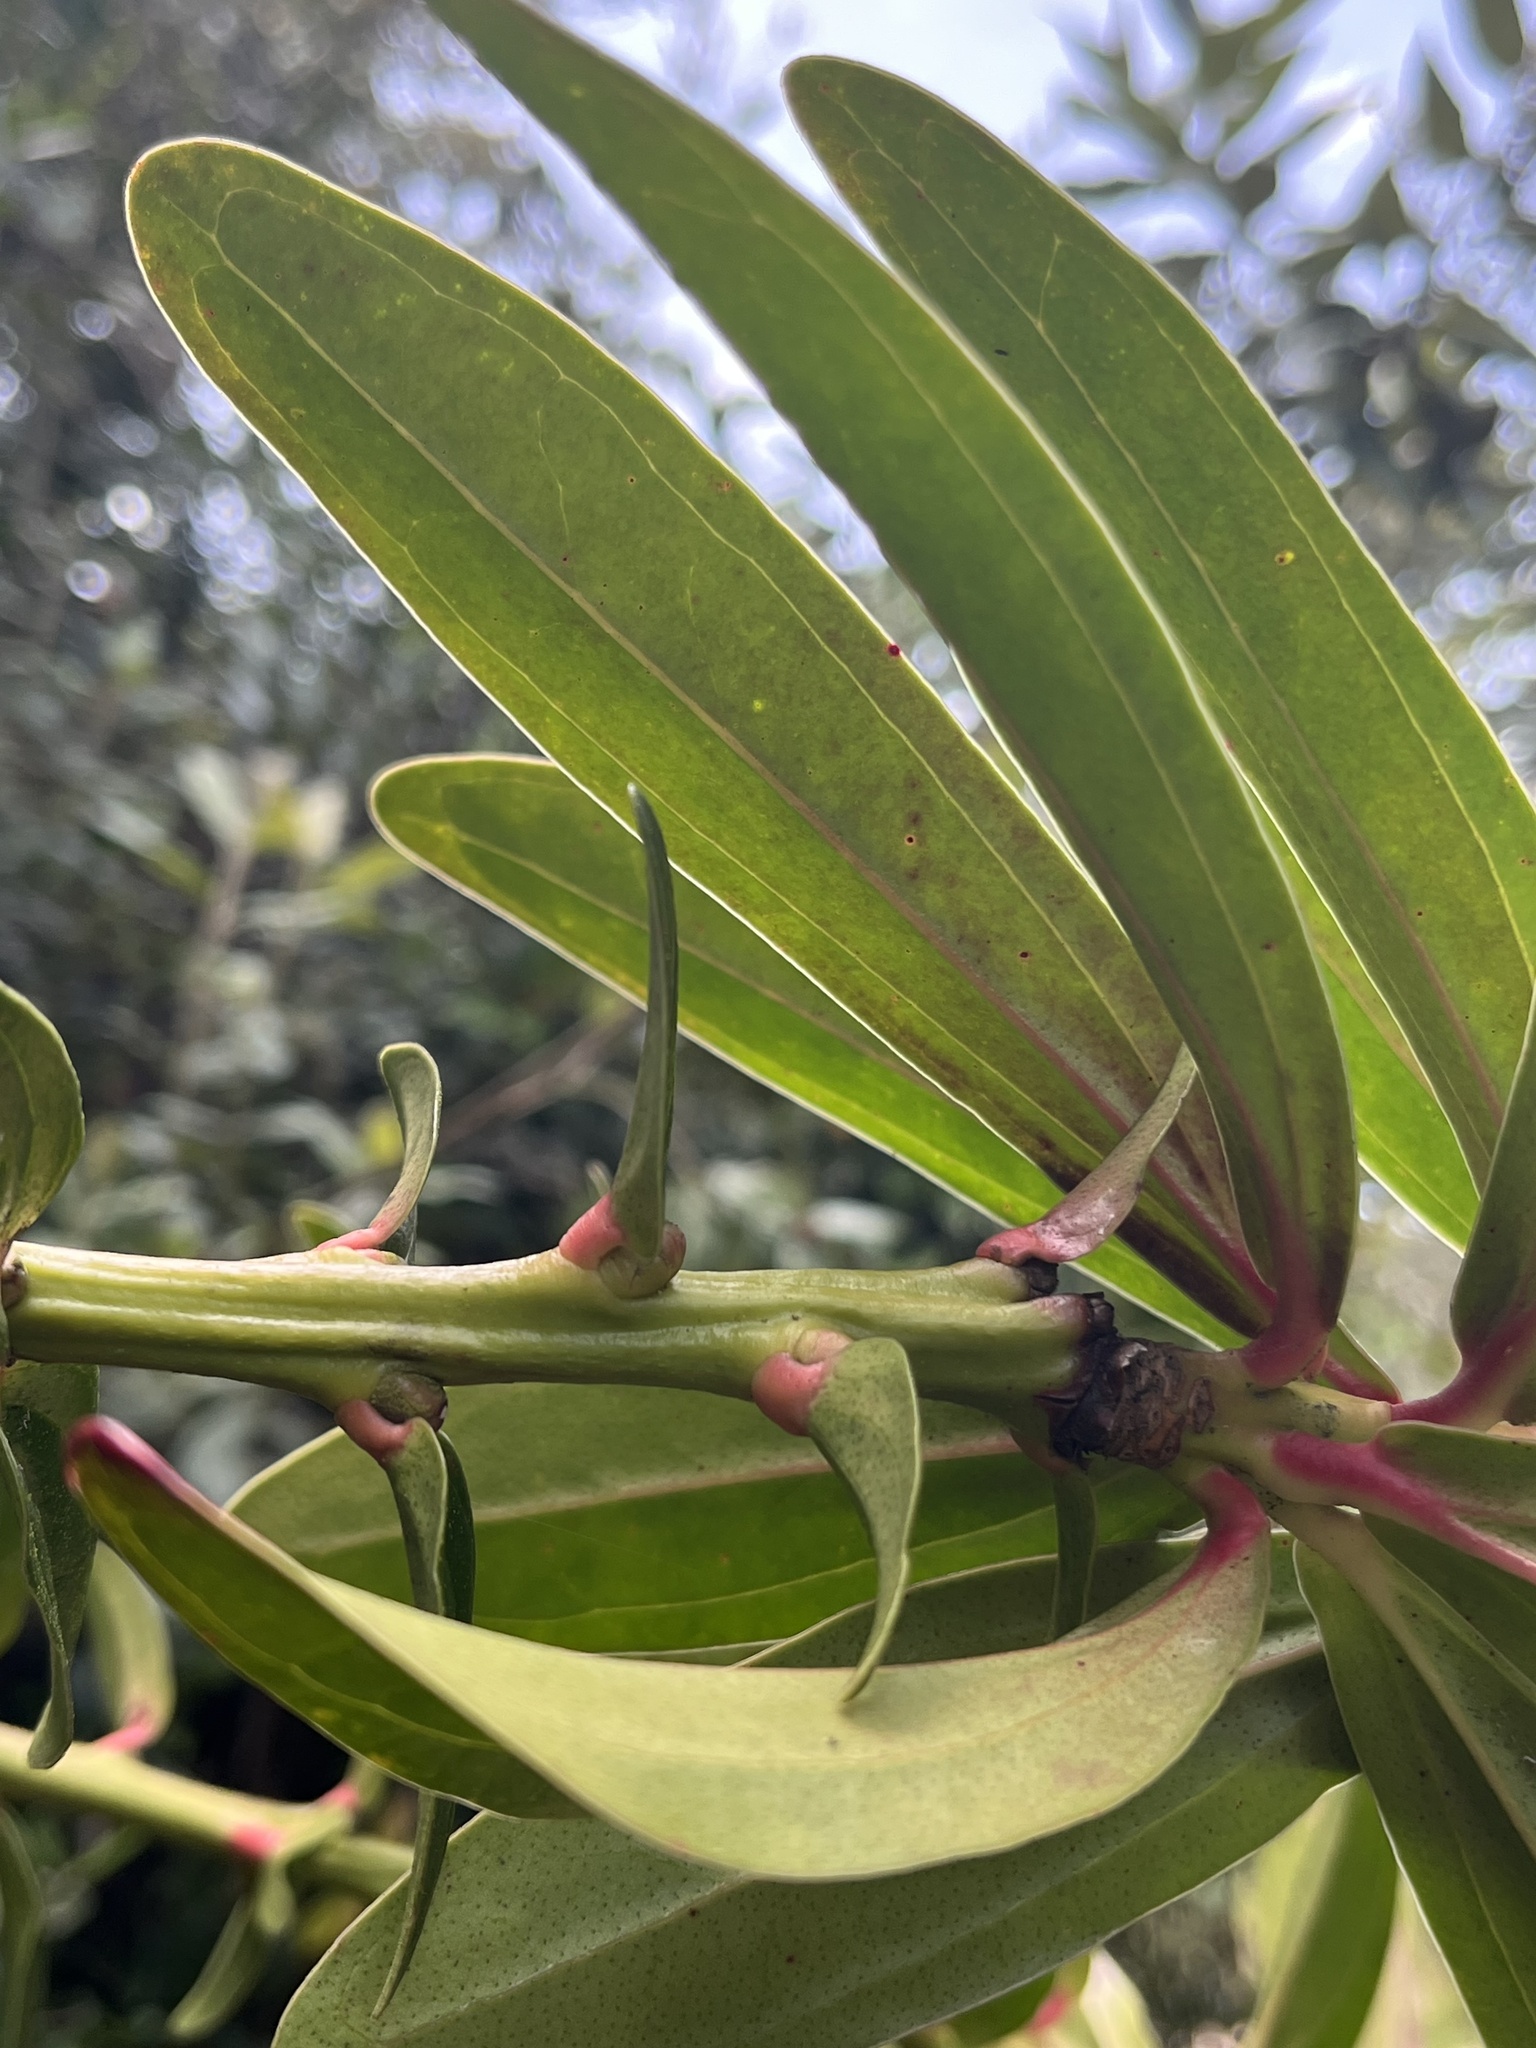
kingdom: Plantae
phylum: Tracheophyta
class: Magnoliopsida
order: Ericales
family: Ericaceae
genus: Cavendishia
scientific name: Cavendishia nitida
